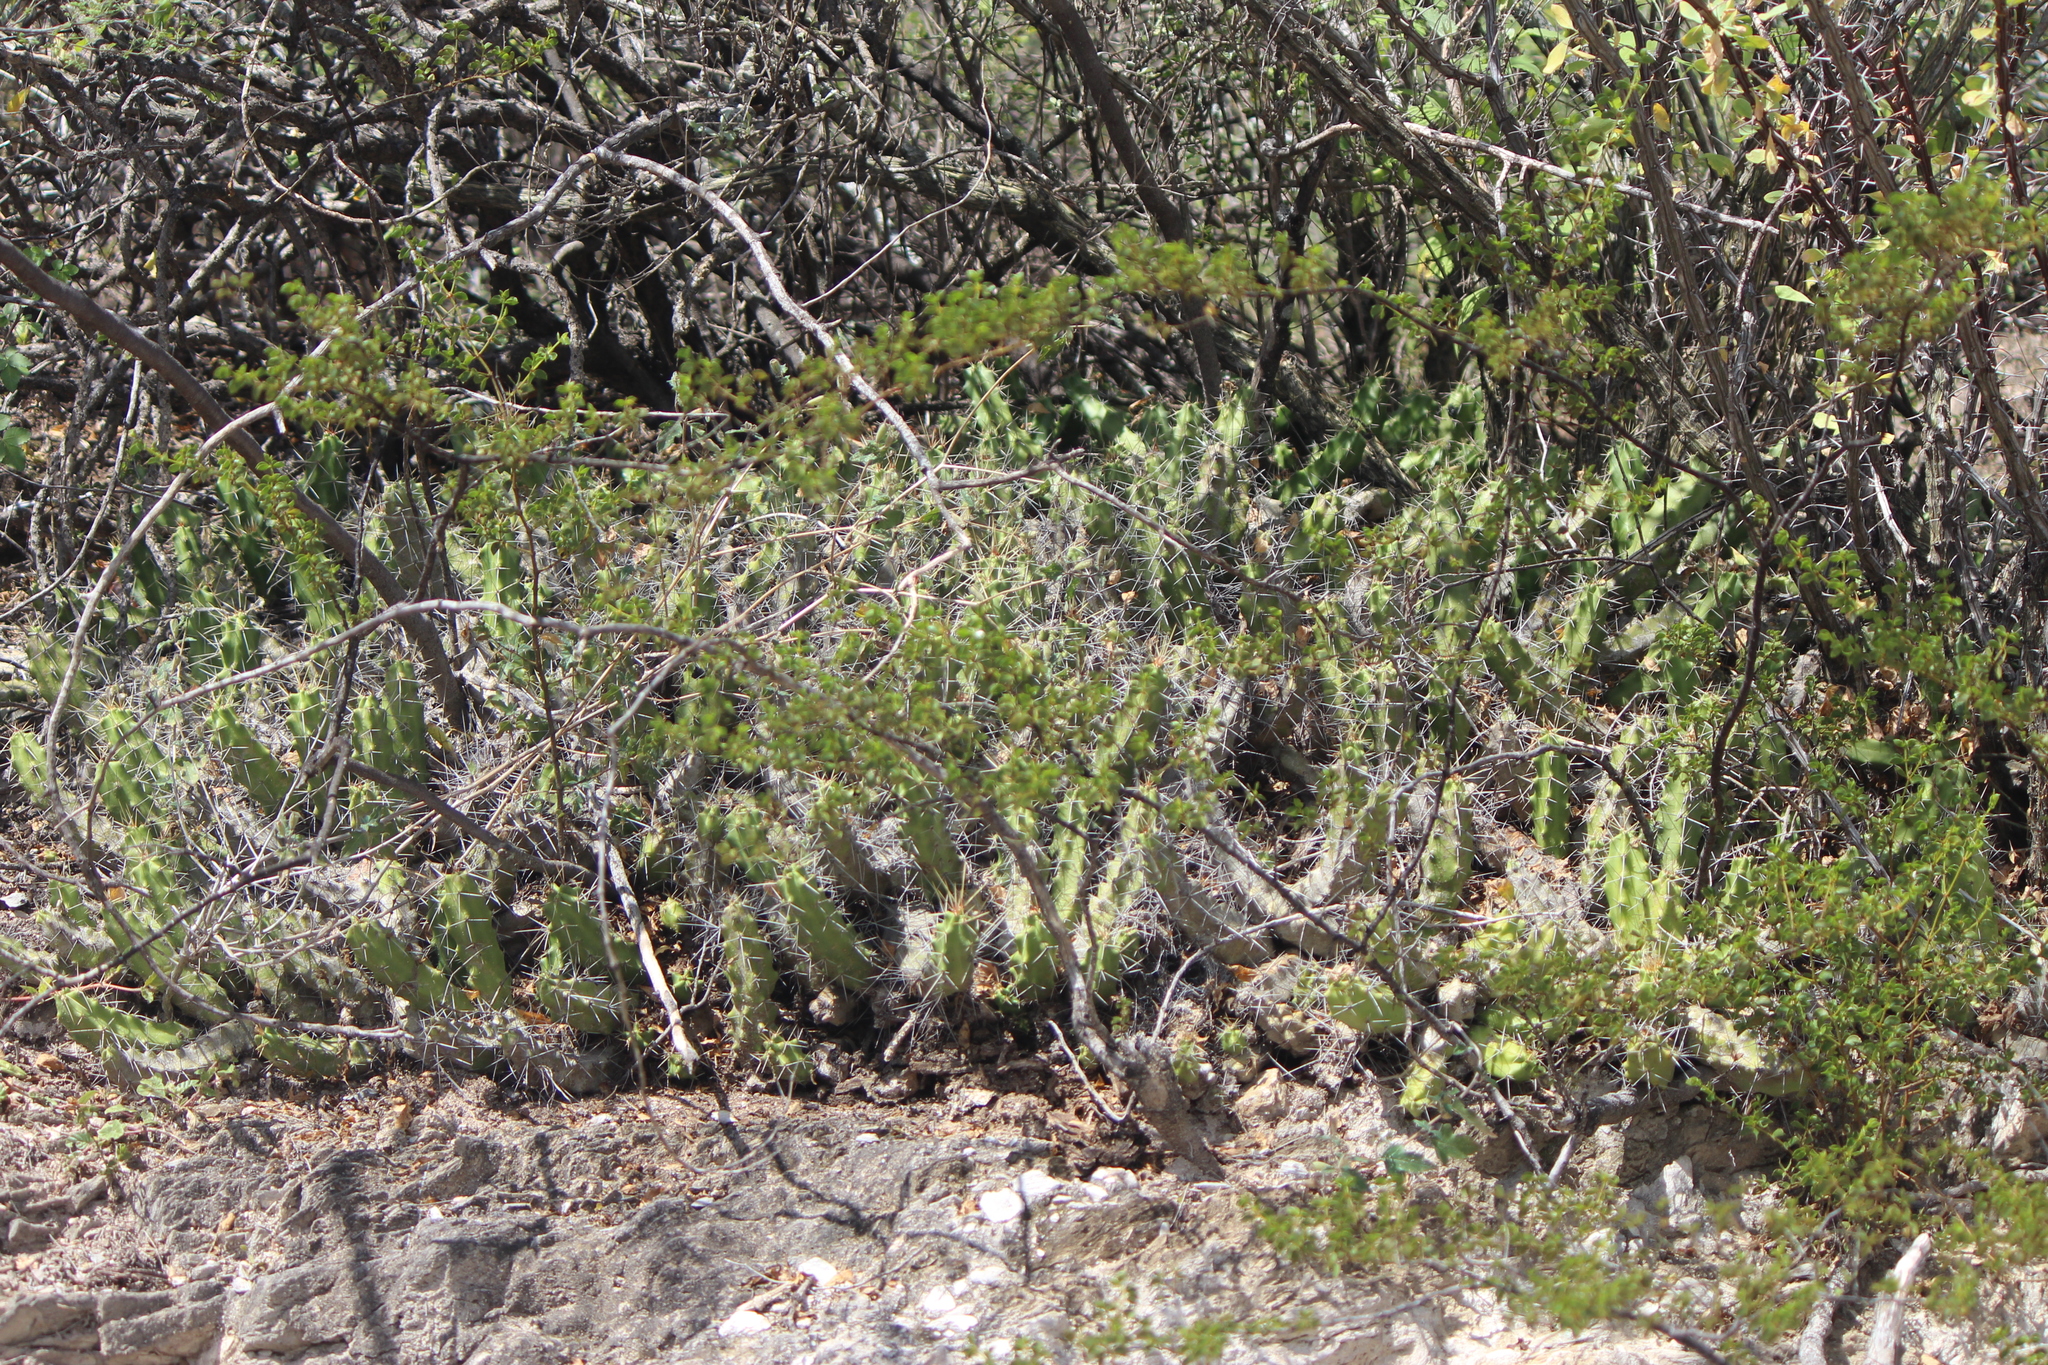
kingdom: Plantae
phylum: Tracheophyta
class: Magnoliopsida
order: Caryophyllales
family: Cactaceae
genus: Echinocereus
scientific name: Echinocereus pentalophus
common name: Ladyfinger cactus
